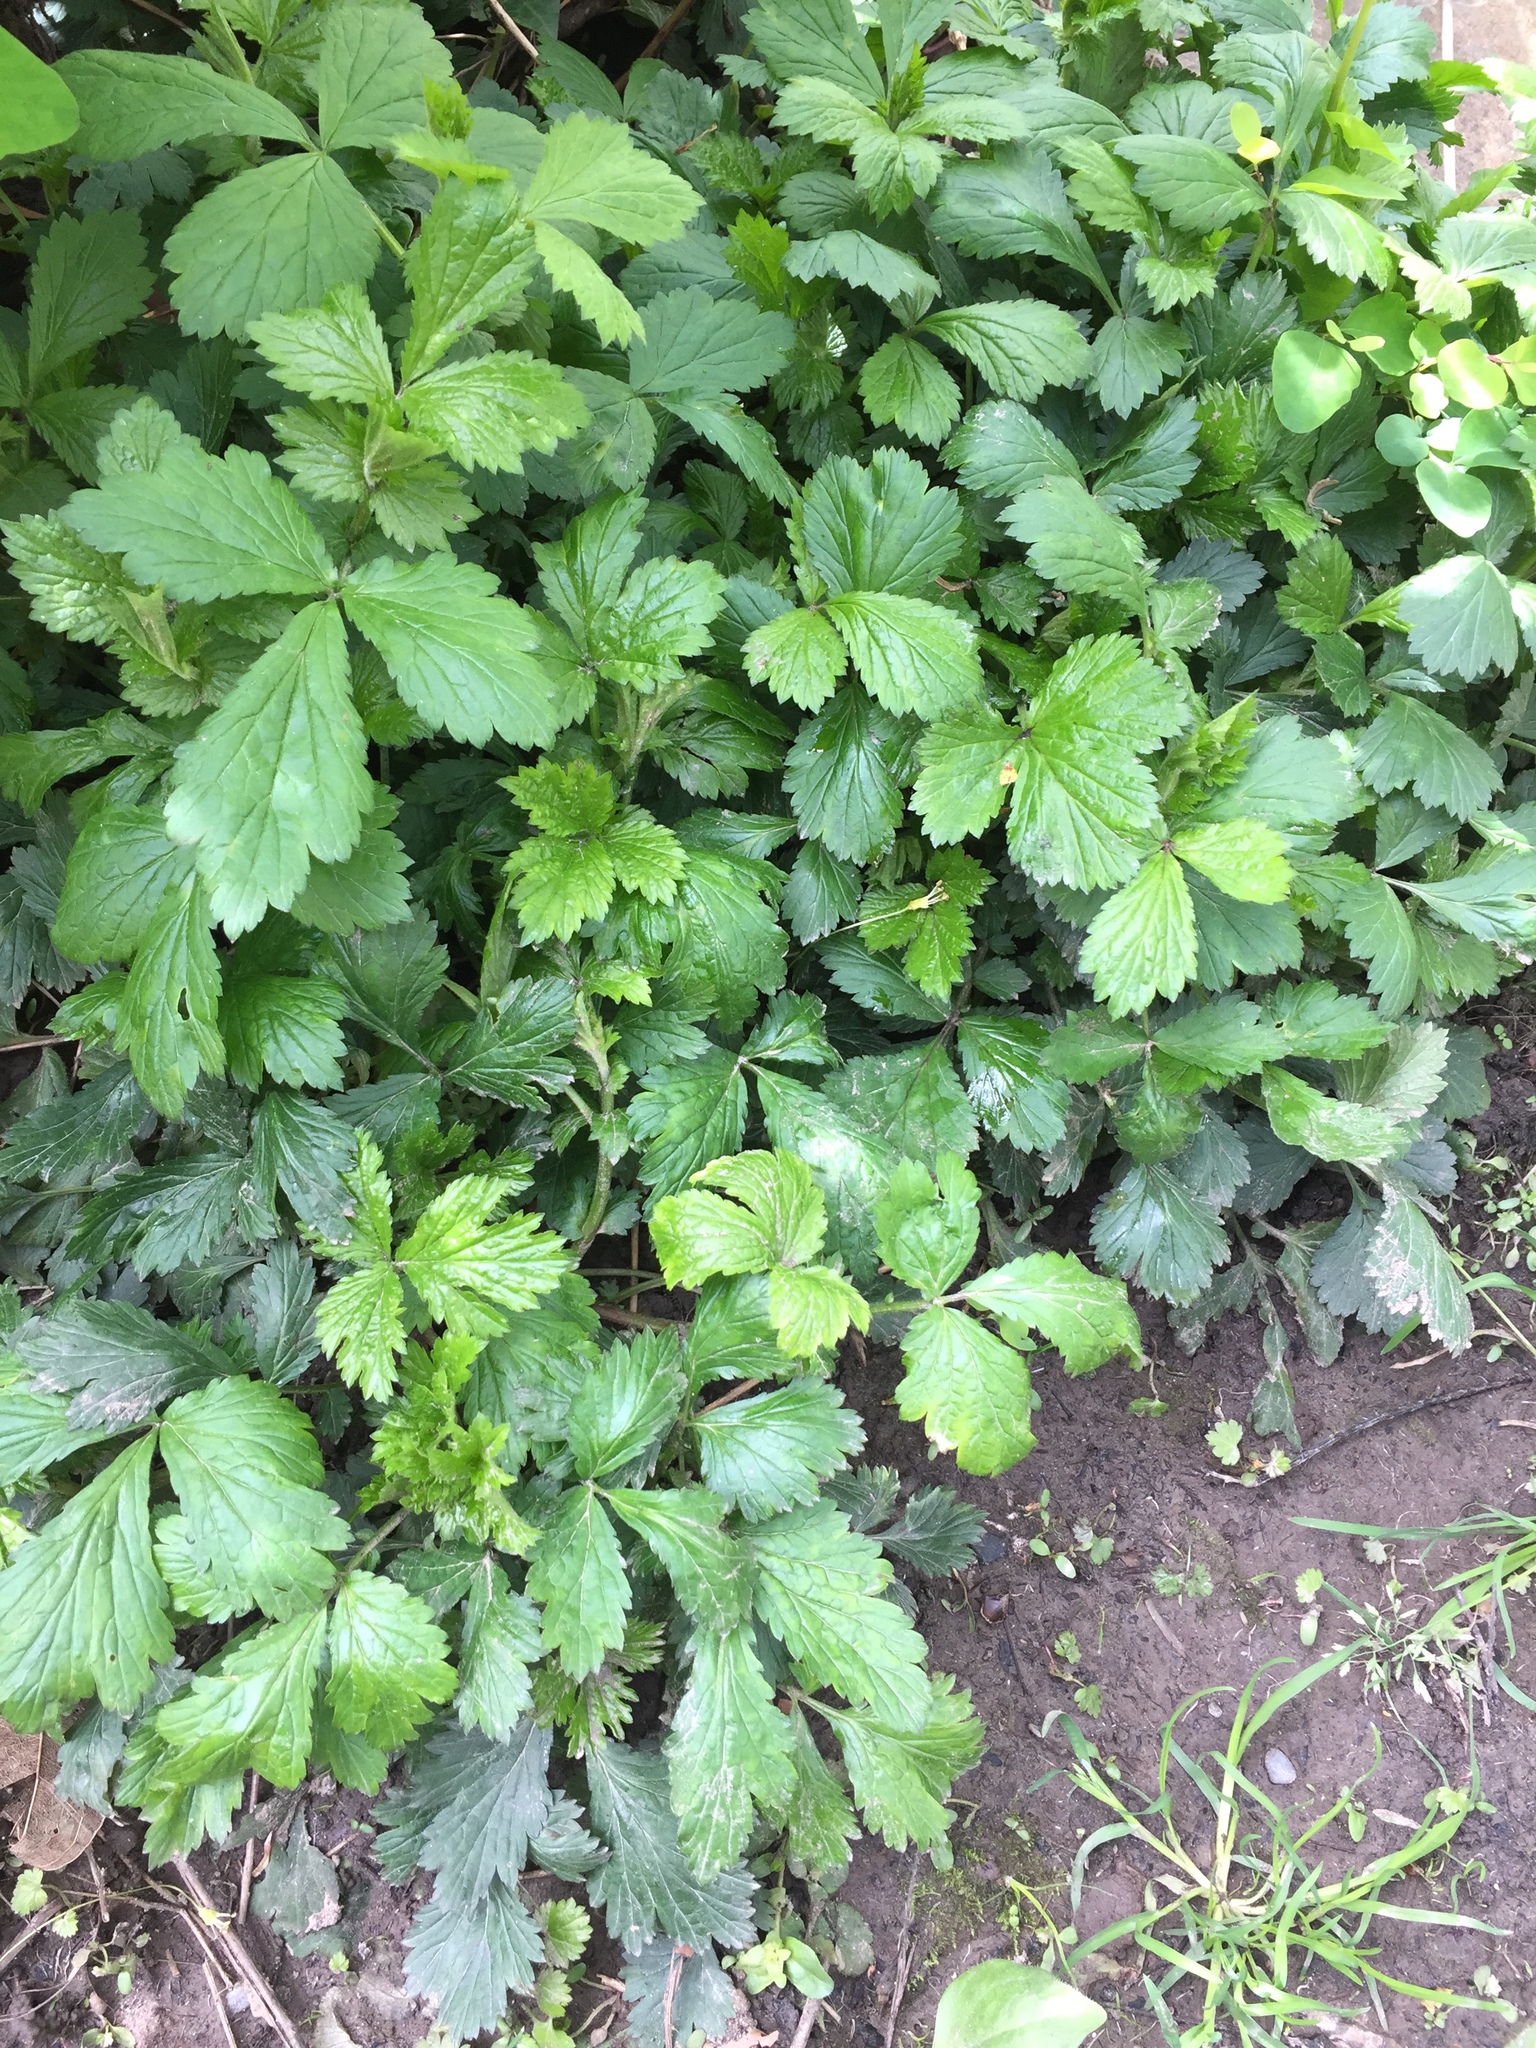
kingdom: Plantae
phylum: Tracheophyta
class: Magnoliopsida
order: Rosales
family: Rosaceae
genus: Geum
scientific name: Geum urbanum
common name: Wood avens
